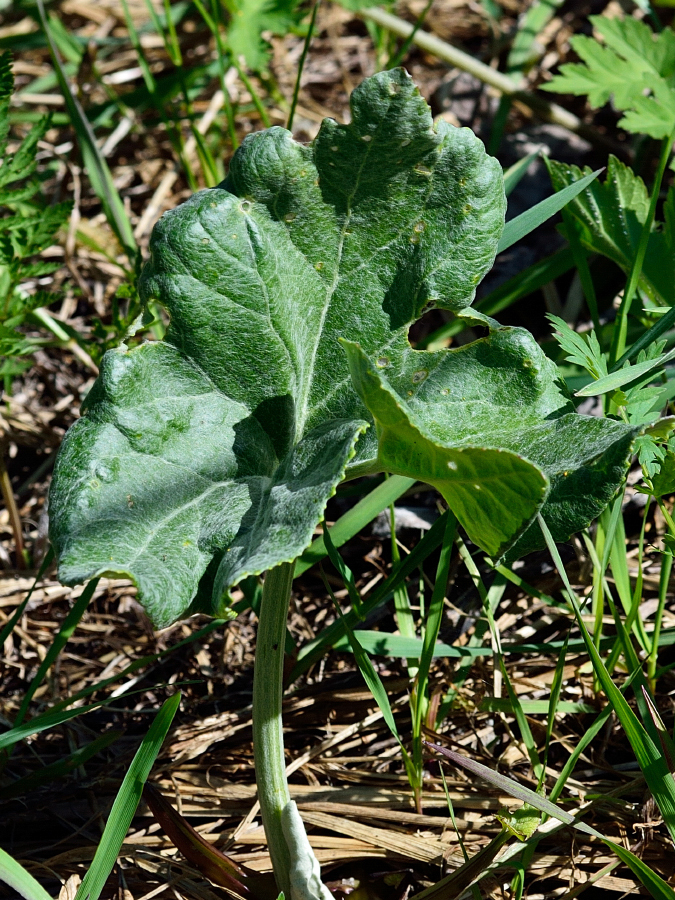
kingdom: Plantae
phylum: Tracheophyta
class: Magnoliopsida
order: Asterales
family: Asteraceae
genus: Petasites
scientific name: Petasites spurius
